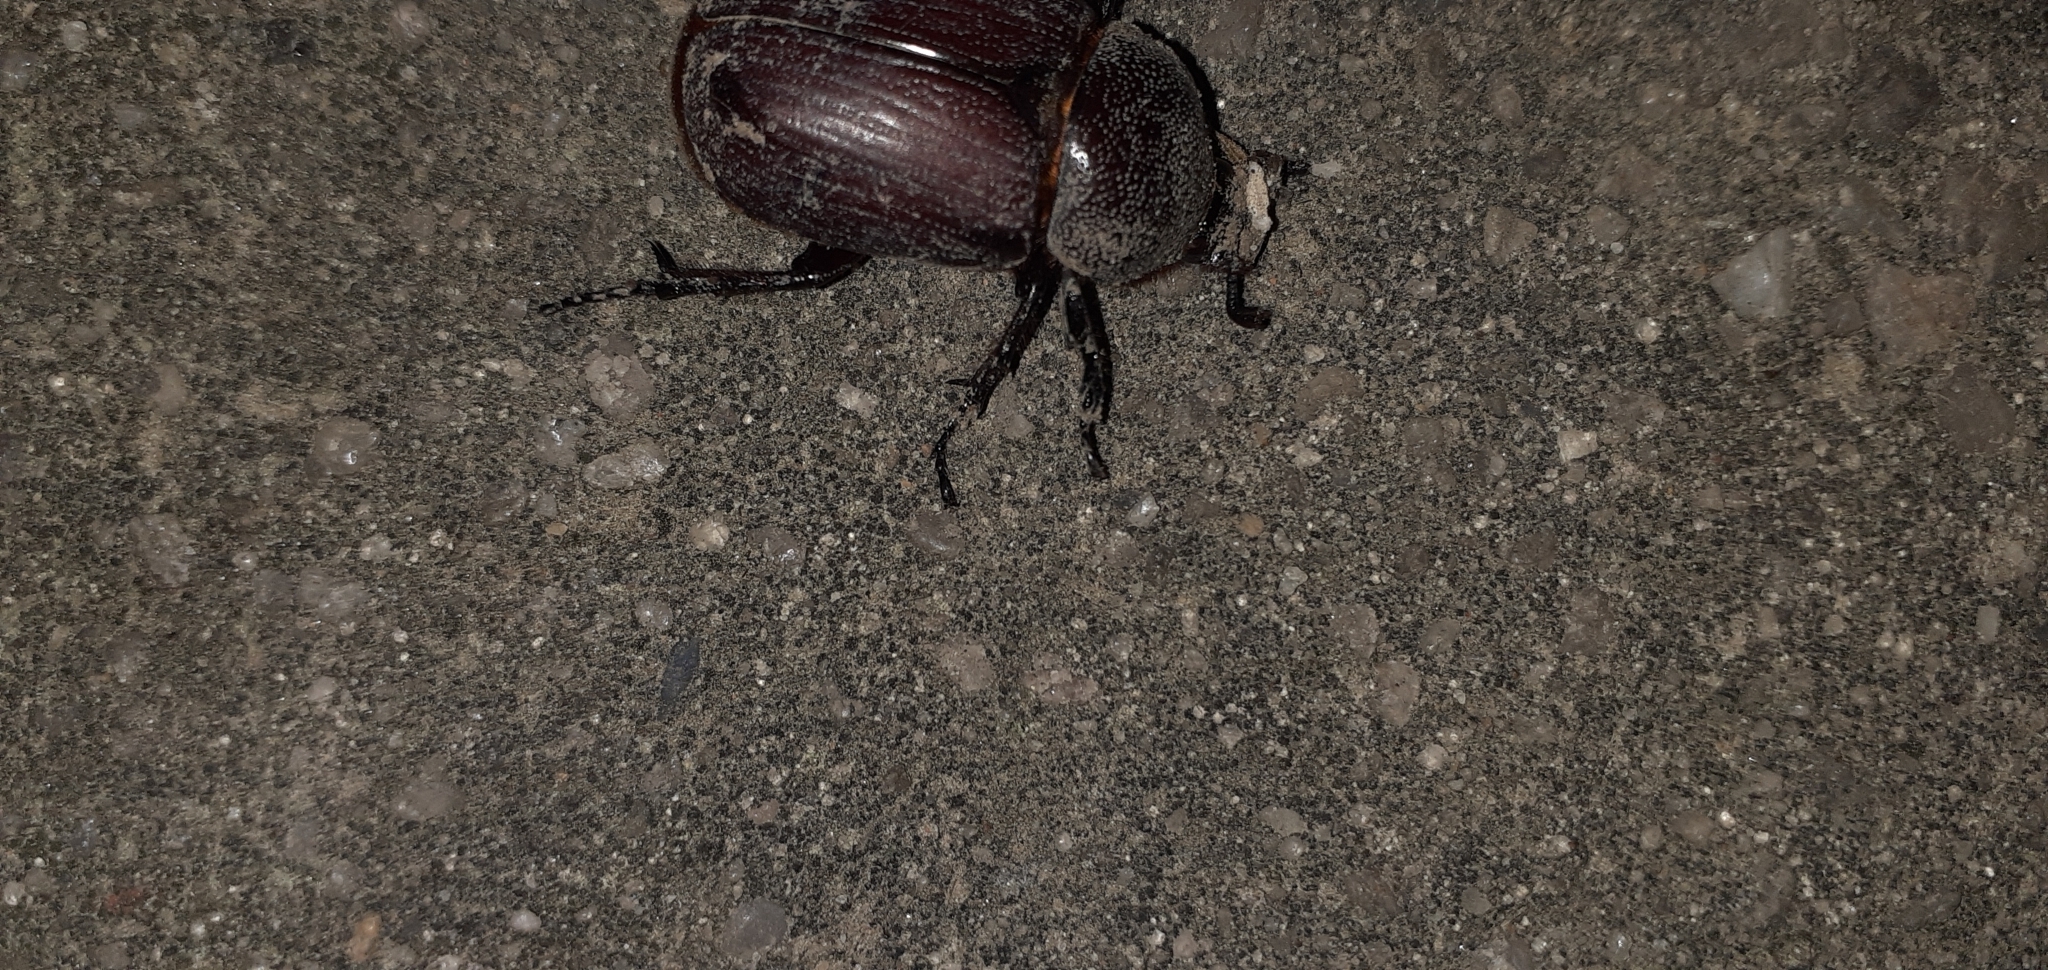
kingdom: Animalia
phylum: Arthropoda
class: Insecta
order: Coleoptera
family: Scarabaeidae
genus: Coelosis
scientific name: Coelosis bicornis
